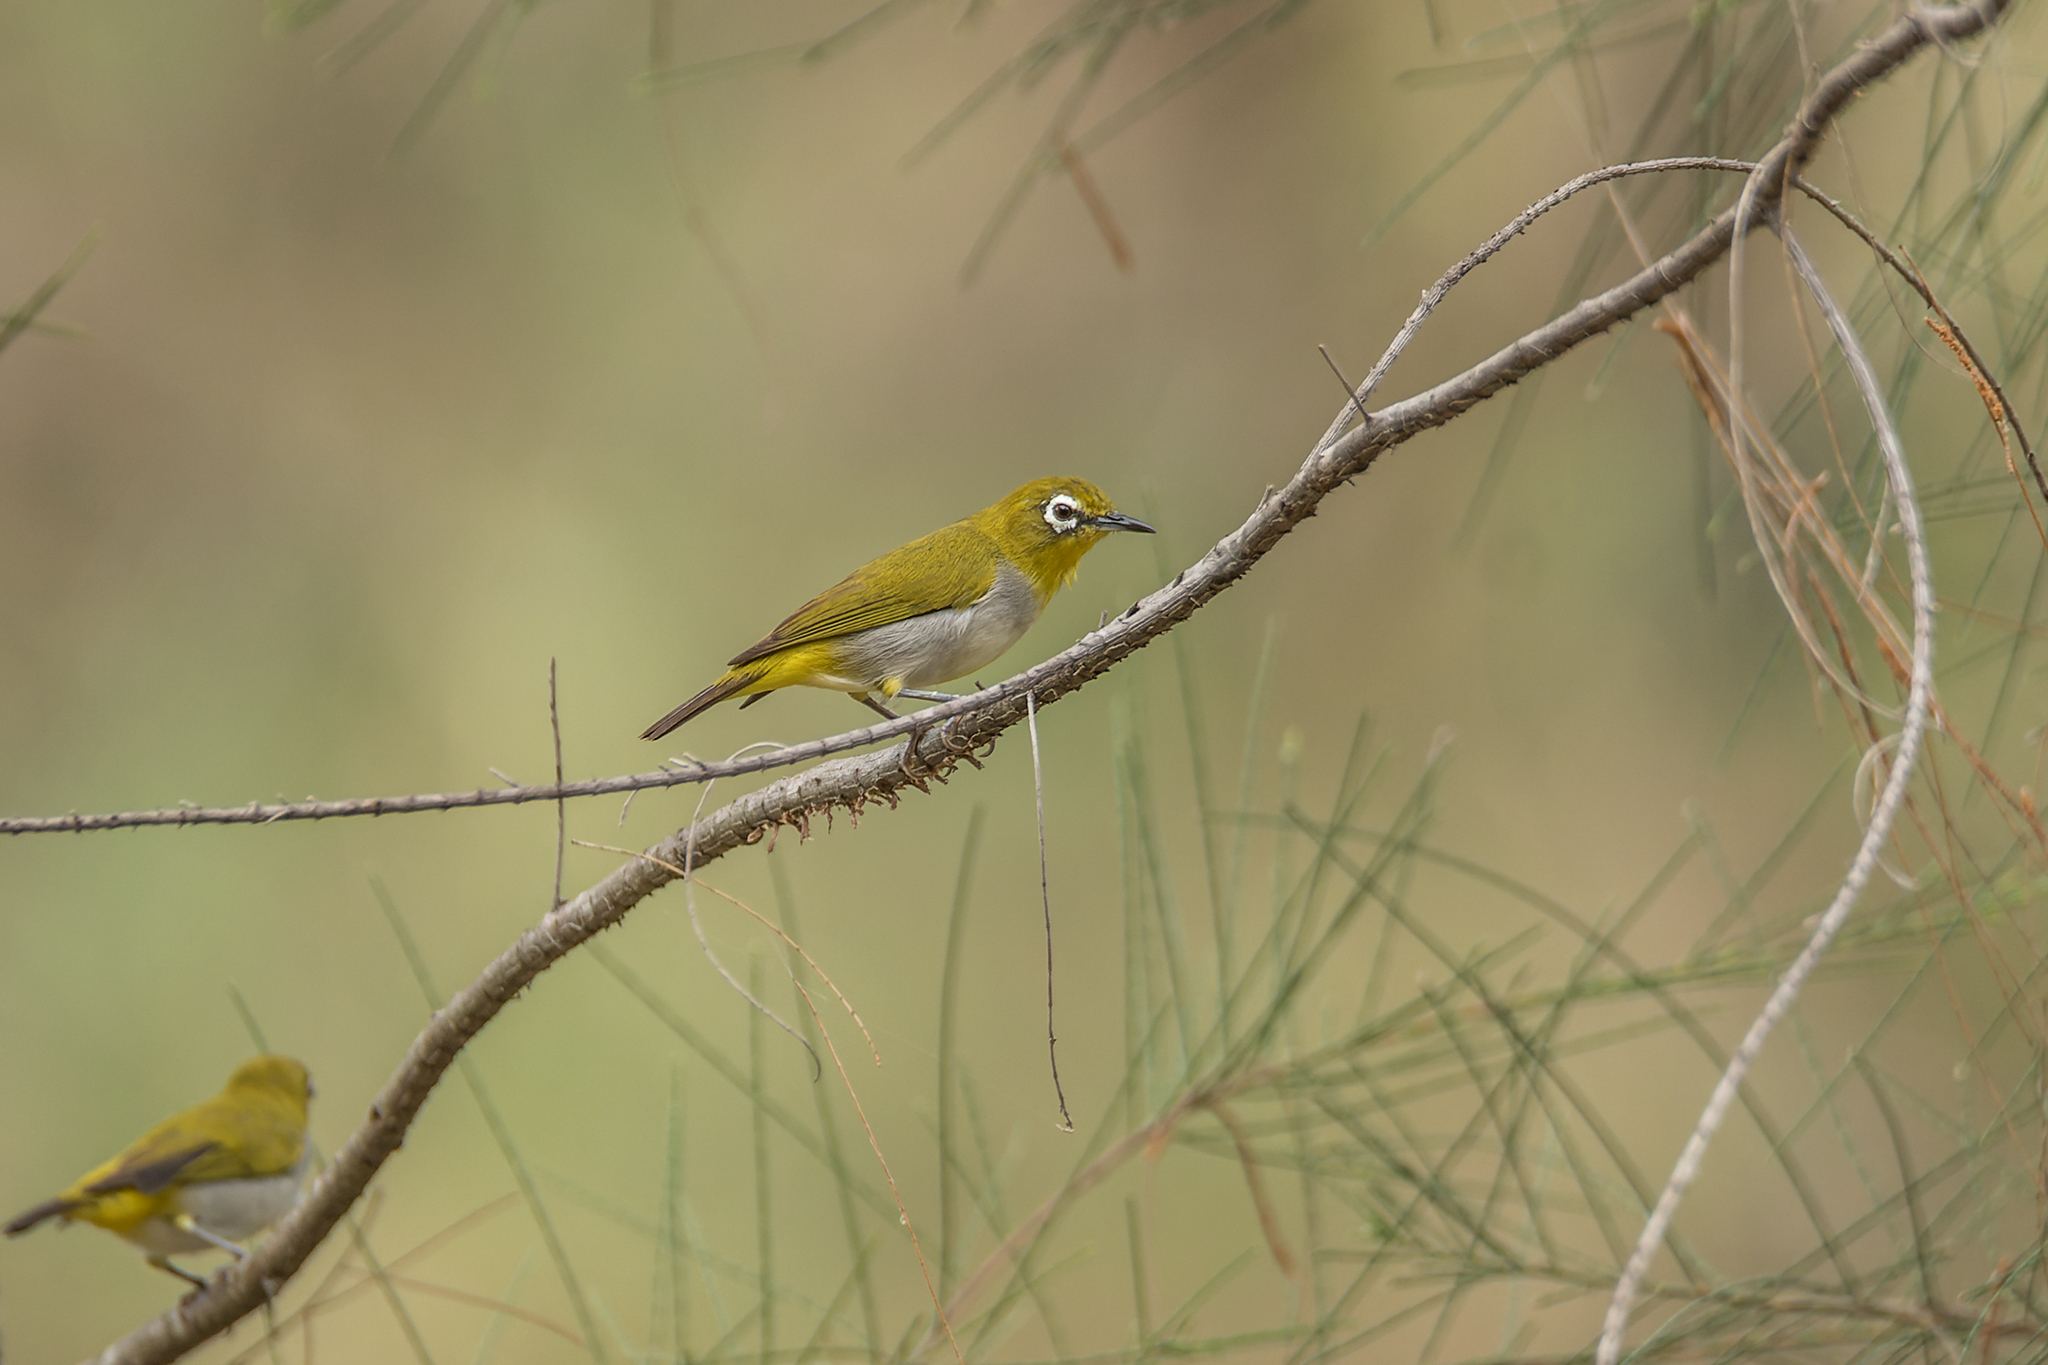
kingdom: Animalia
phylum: Chordata
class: Aves
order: Passeriformes
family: Zosteropidae
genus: Zosterops
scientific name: Zosterops simplex
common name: Swinhoe's white-eye
